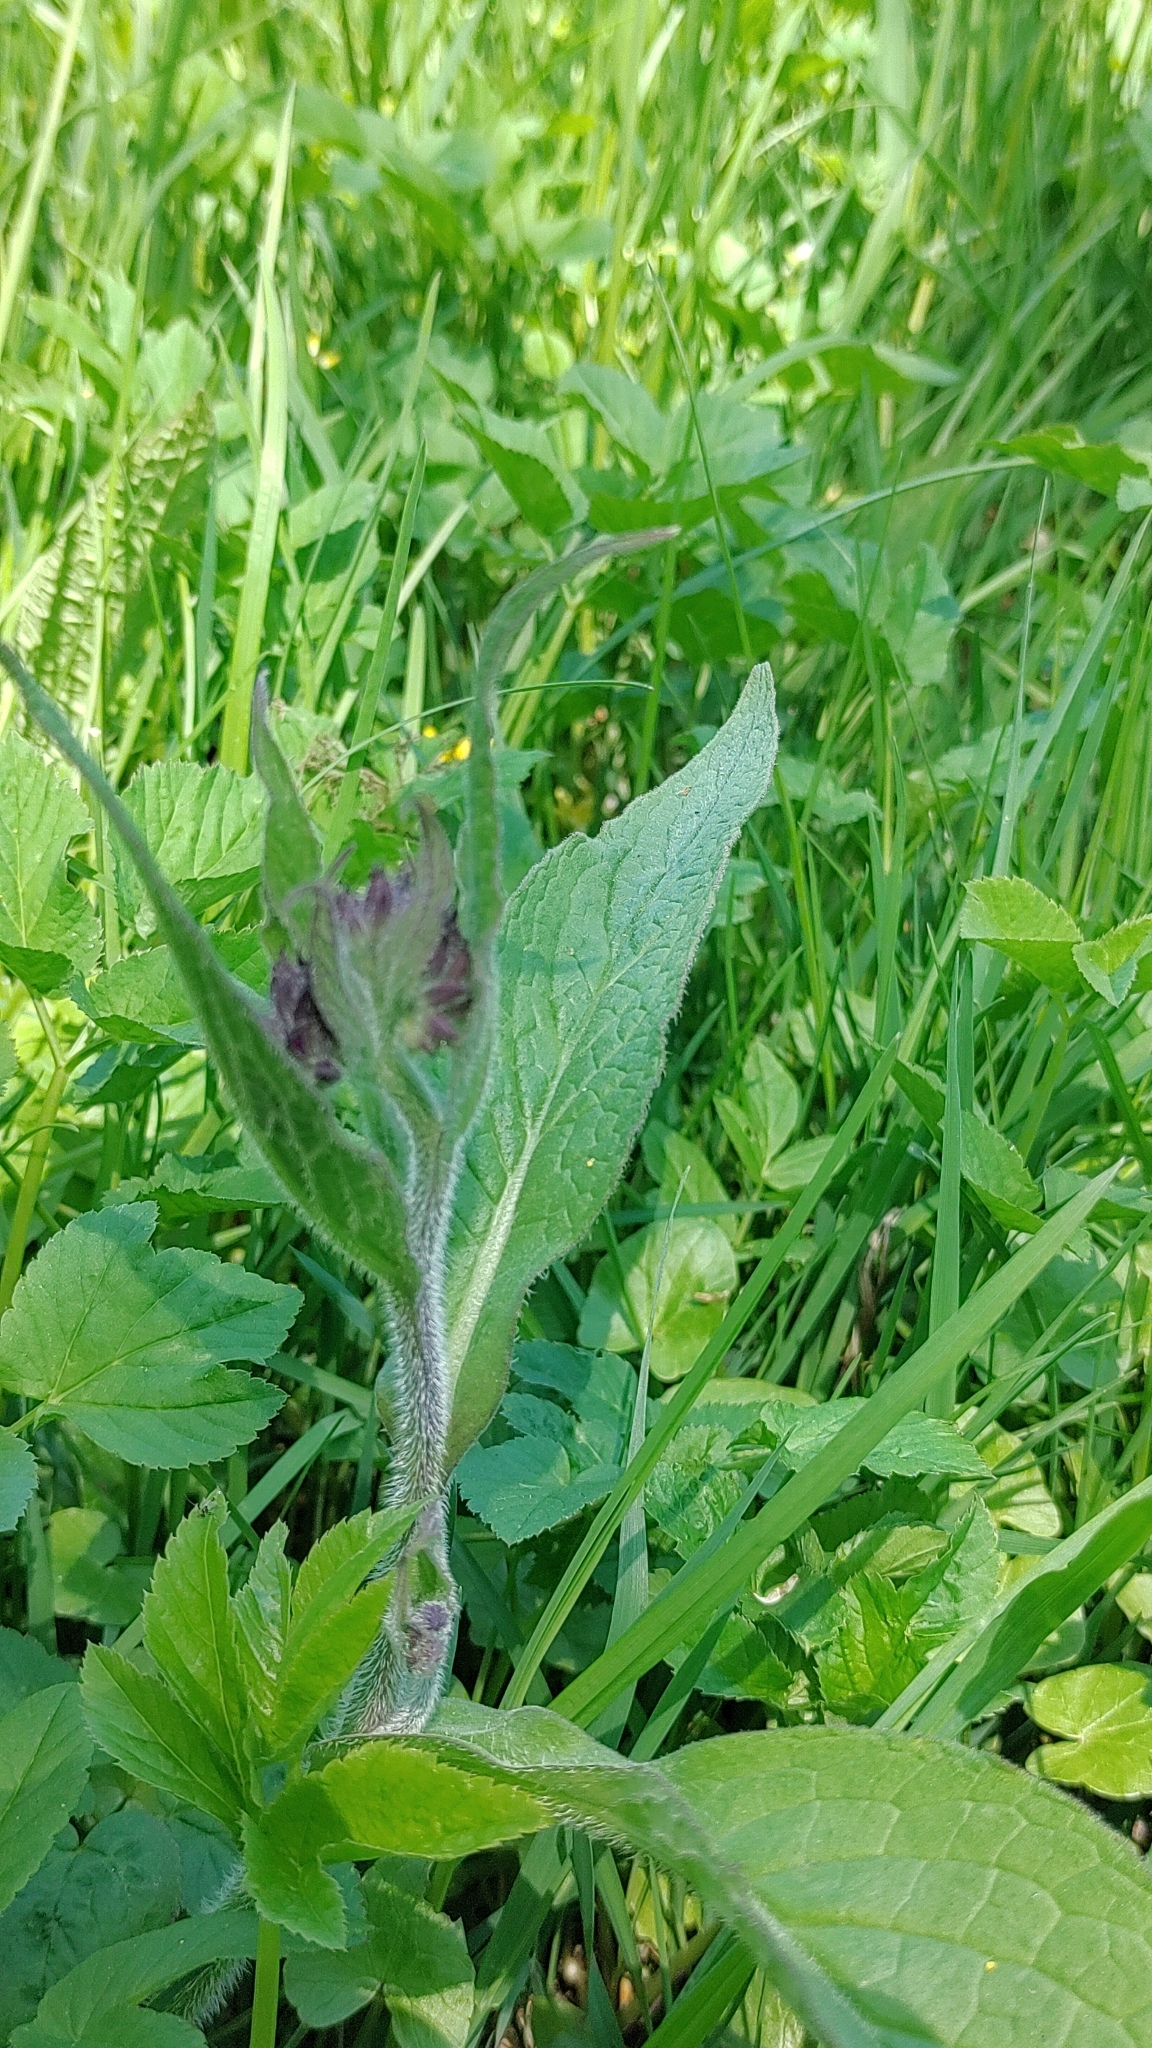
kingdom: Plantae
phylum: Tracheophyta
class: Magnoliopsida
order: Boraginales
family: Boraginaceae
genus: Symphytum
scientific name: Symphytum officinale
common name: Common comfrey
